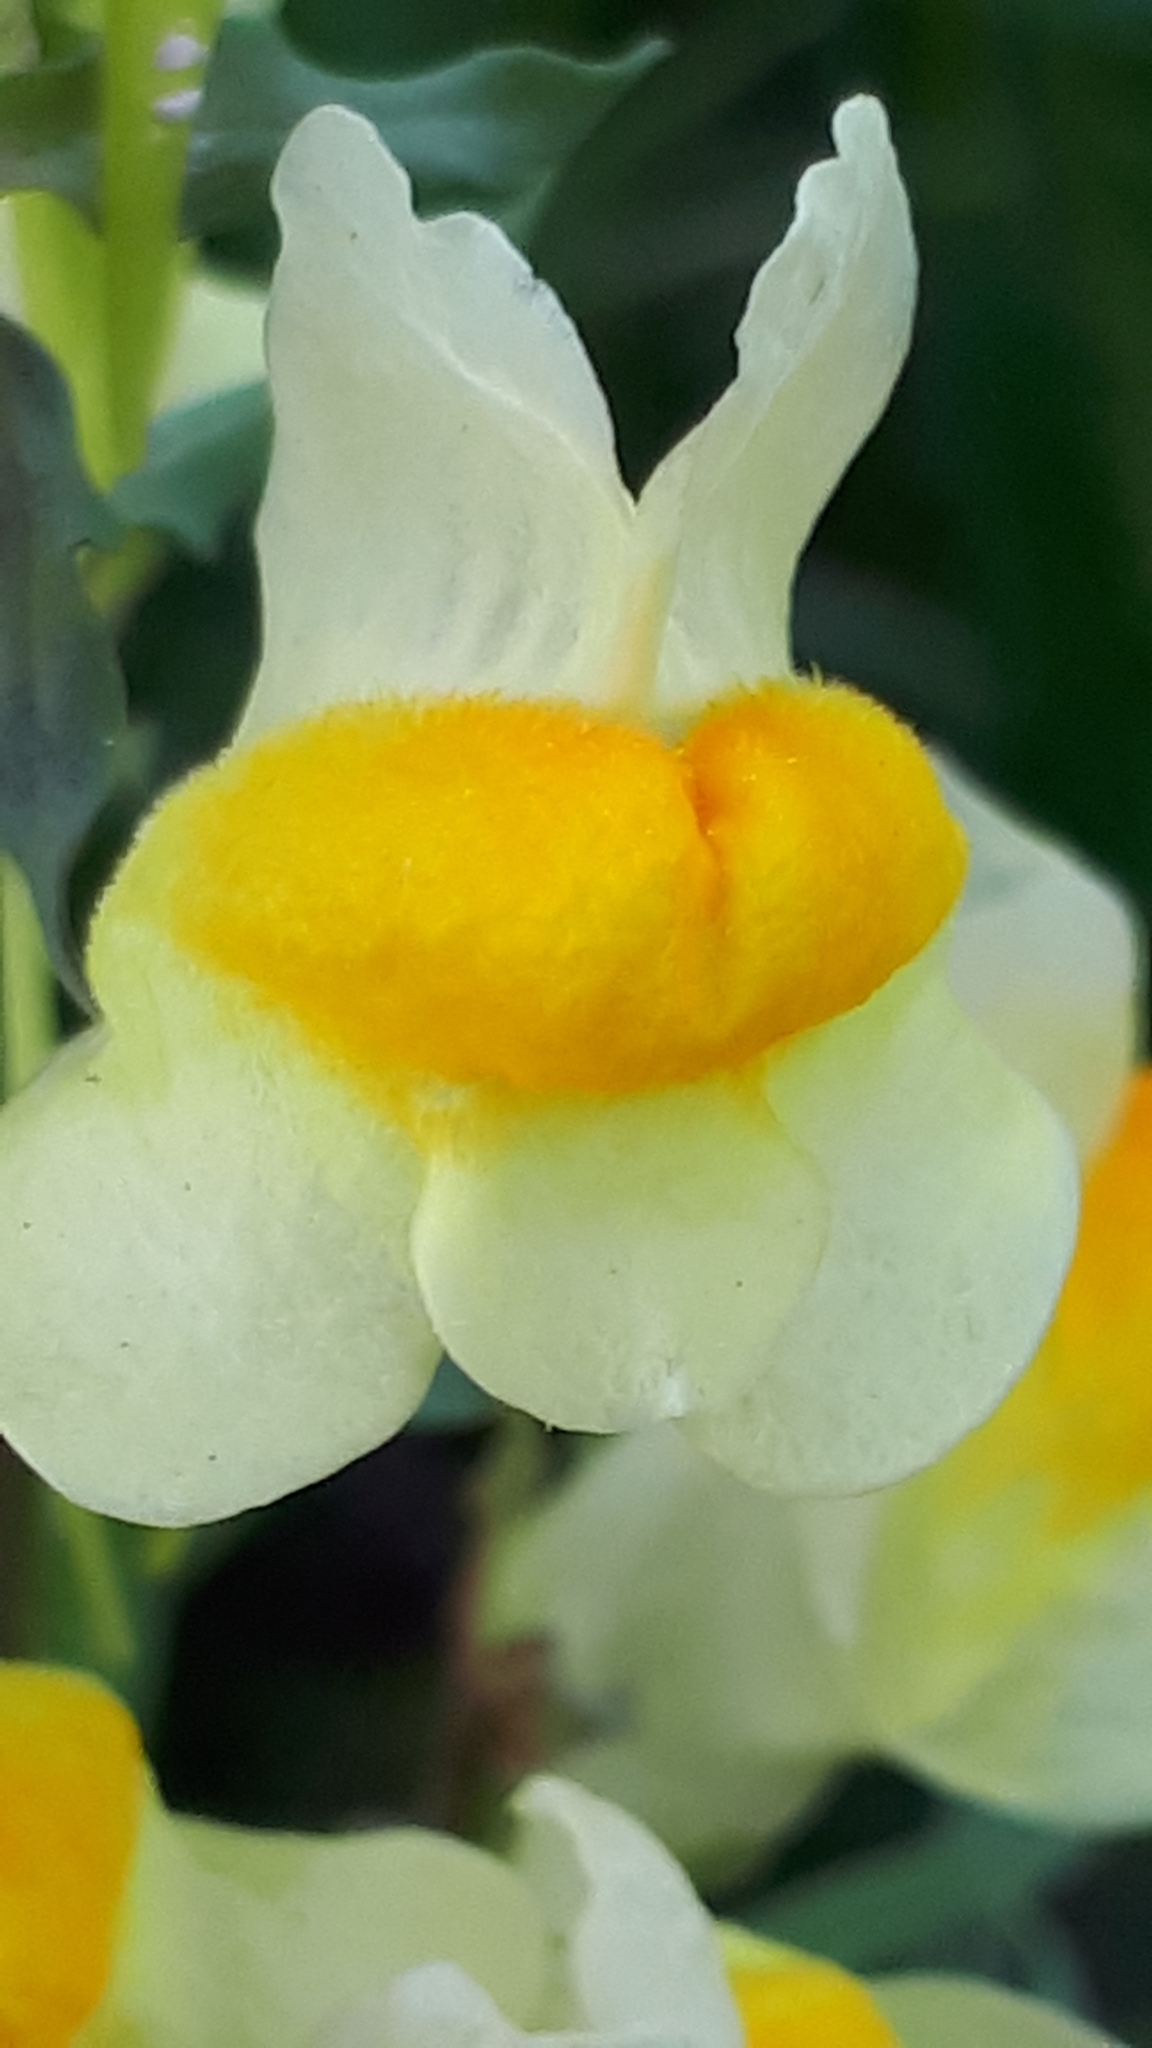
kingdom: Plantae
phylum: Tracheophyta
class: Magnoliopsida
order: Lamiales
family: Plantaginaceae
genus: Linaria
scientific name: Linaria vulgaris
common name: Butter and eggs
